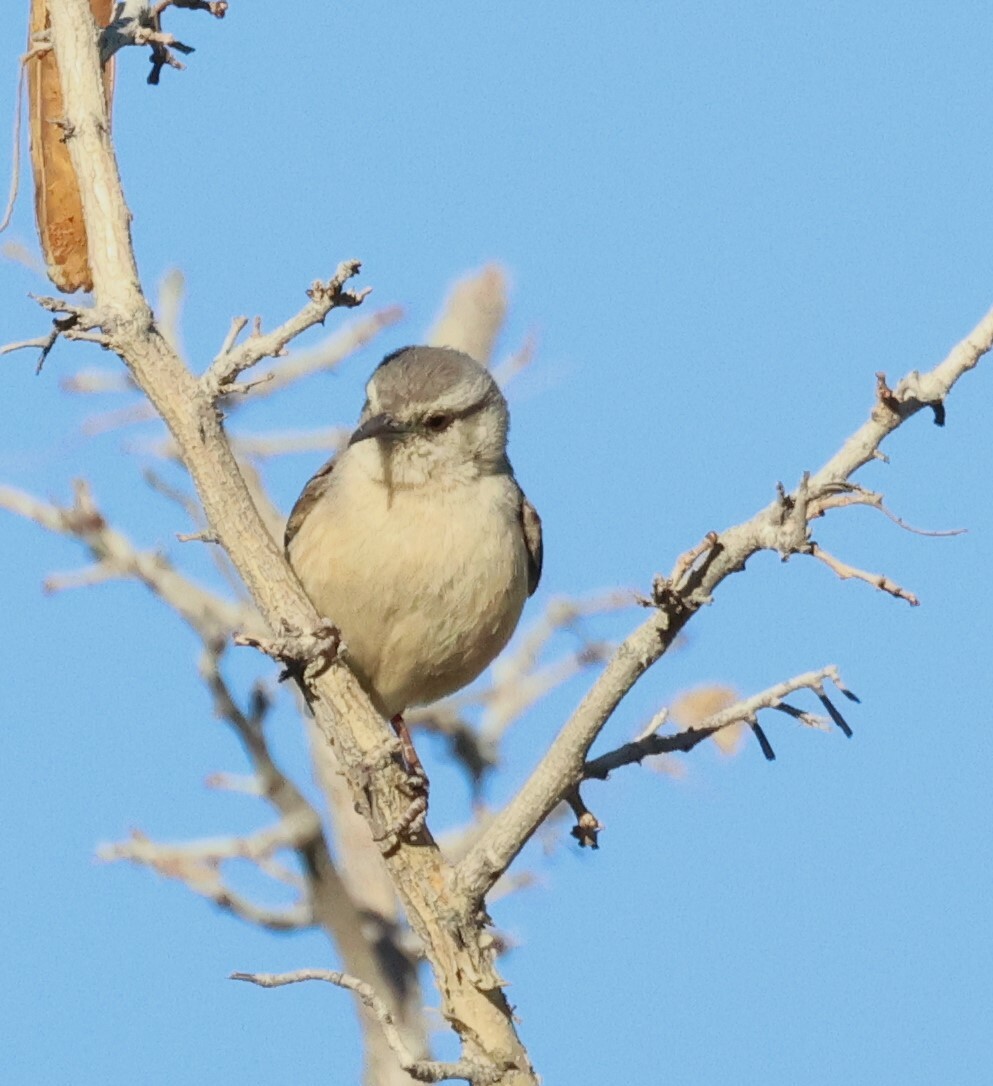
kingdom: Animalia
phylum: Chordata
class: Aves
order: Passeriformes
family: Macrosphenidae
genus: Sylvietta
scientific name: Sylvietta rufescens
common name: Long-billed crombec
